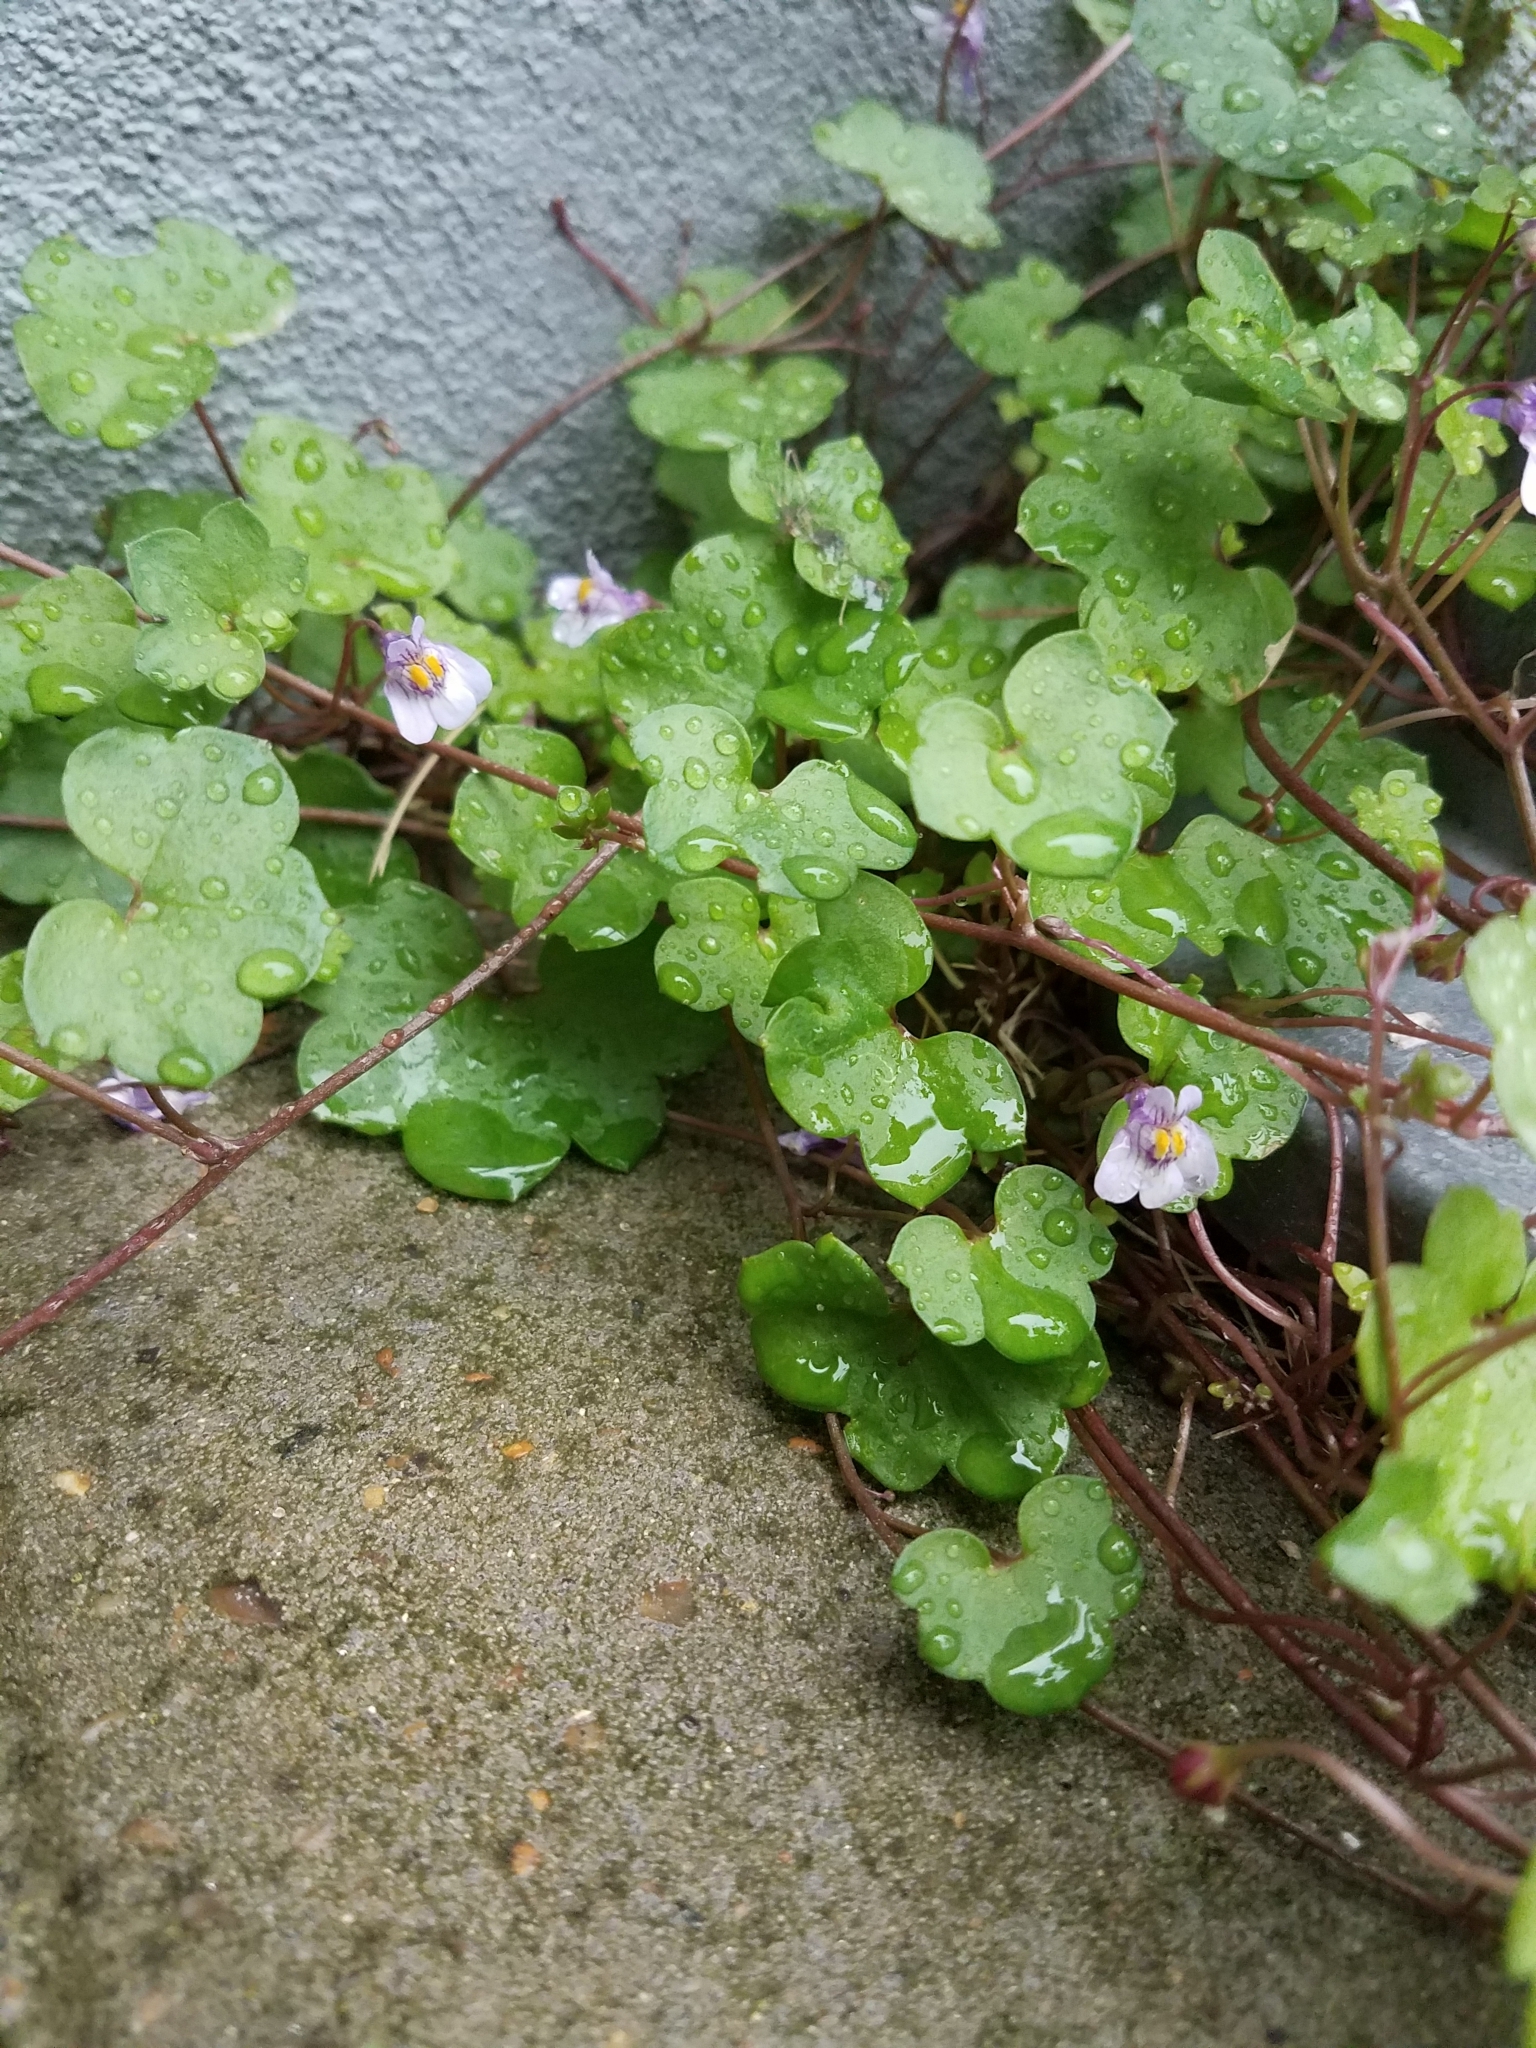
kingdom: Plantae
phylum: Tracheophyta
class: Magnoliopsida
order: Lamiales
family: Plantaginaceae
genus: Cymbalaria
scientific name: Cymbalaria muralis
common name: Ivy-leaved toadflax
